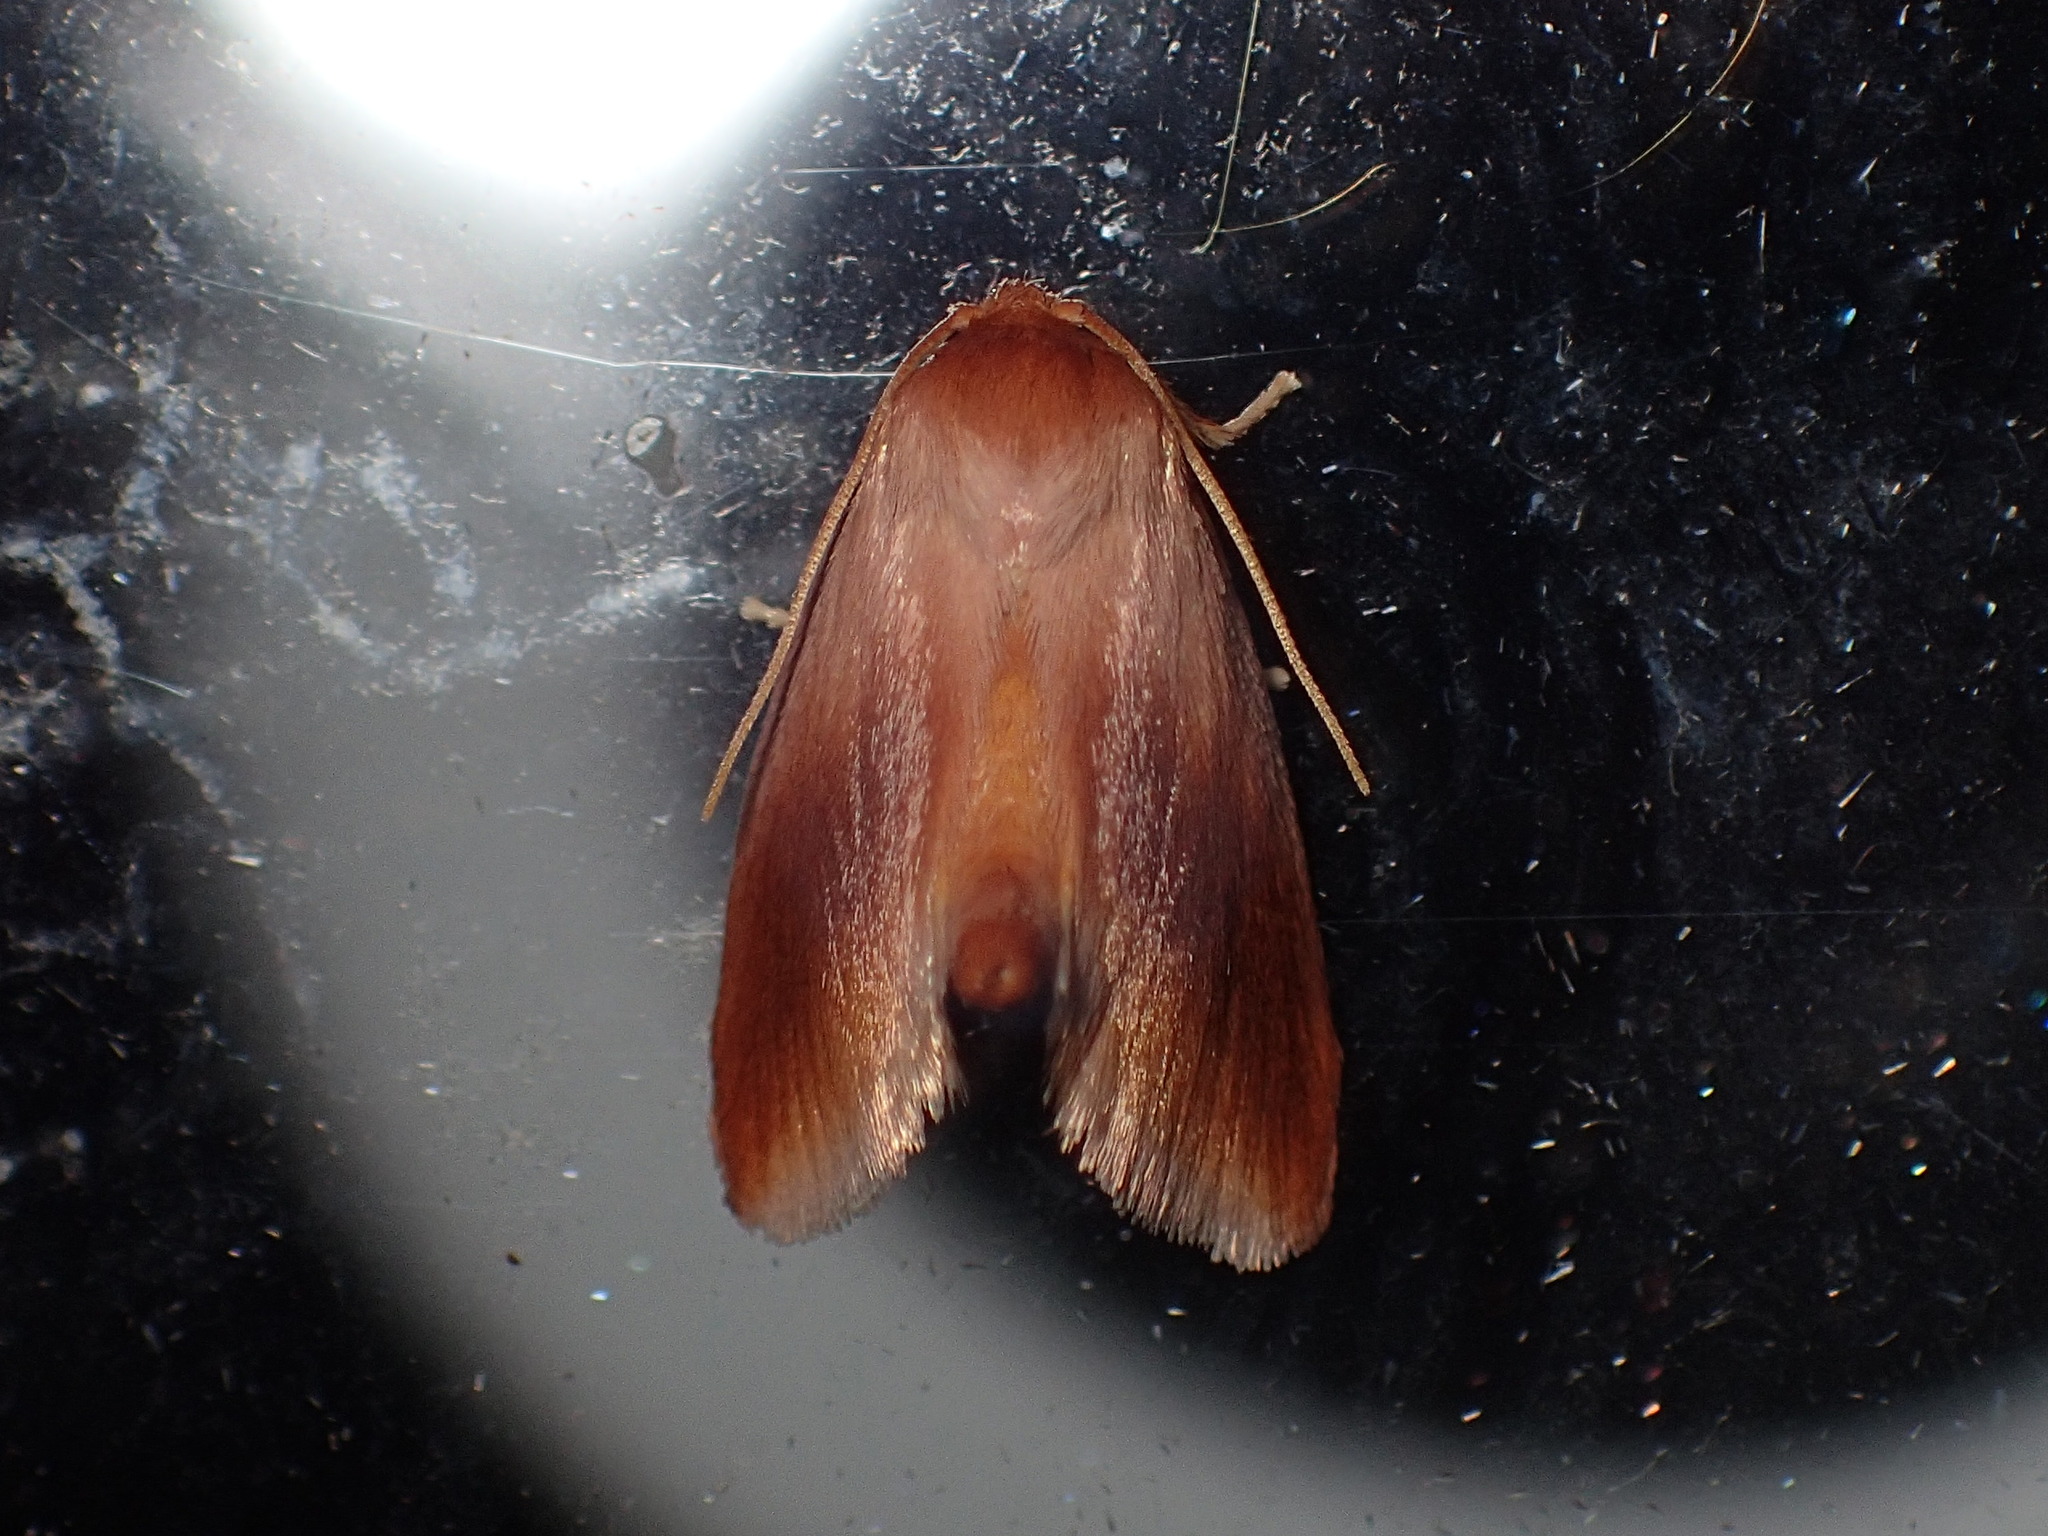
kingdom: Animalia
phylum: Arthropoda
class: Insecta
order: Lepidoptera
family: Limacodidae
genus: Tortricidia
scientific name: Tortricidia testacea
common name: Early button slug moth
